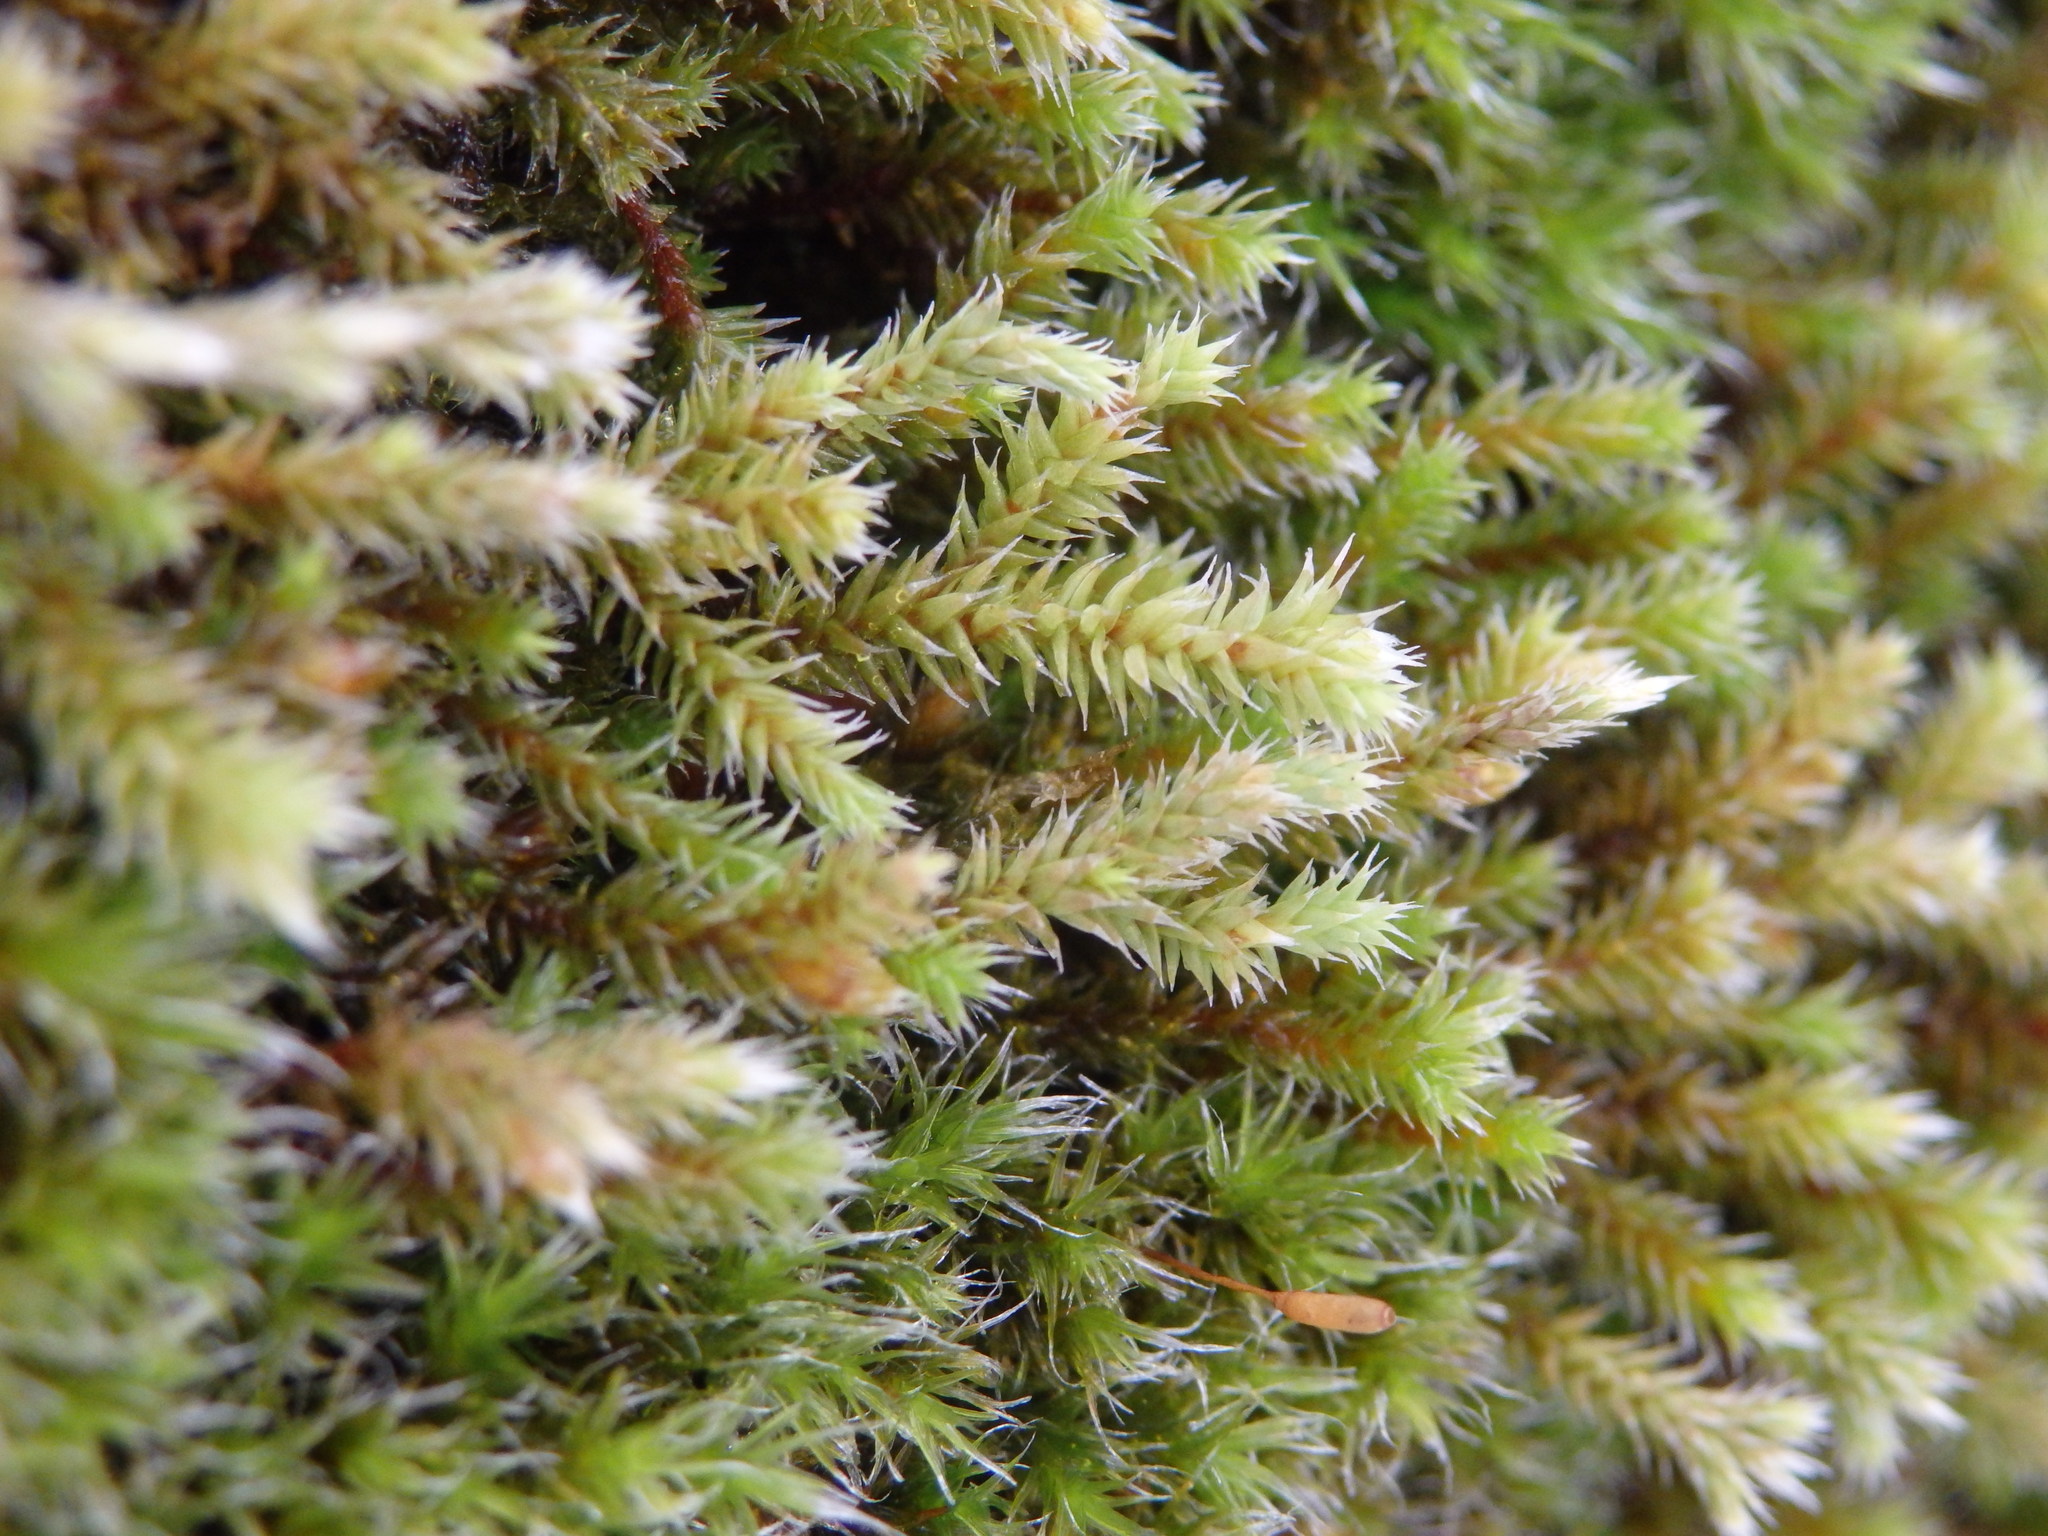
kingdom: Plantae
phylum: Bryophyta
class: Bryopsida
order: Hedwigiales
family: Hedwigiaceae
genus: Hedwigia
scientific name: Hedwigia ciliata
